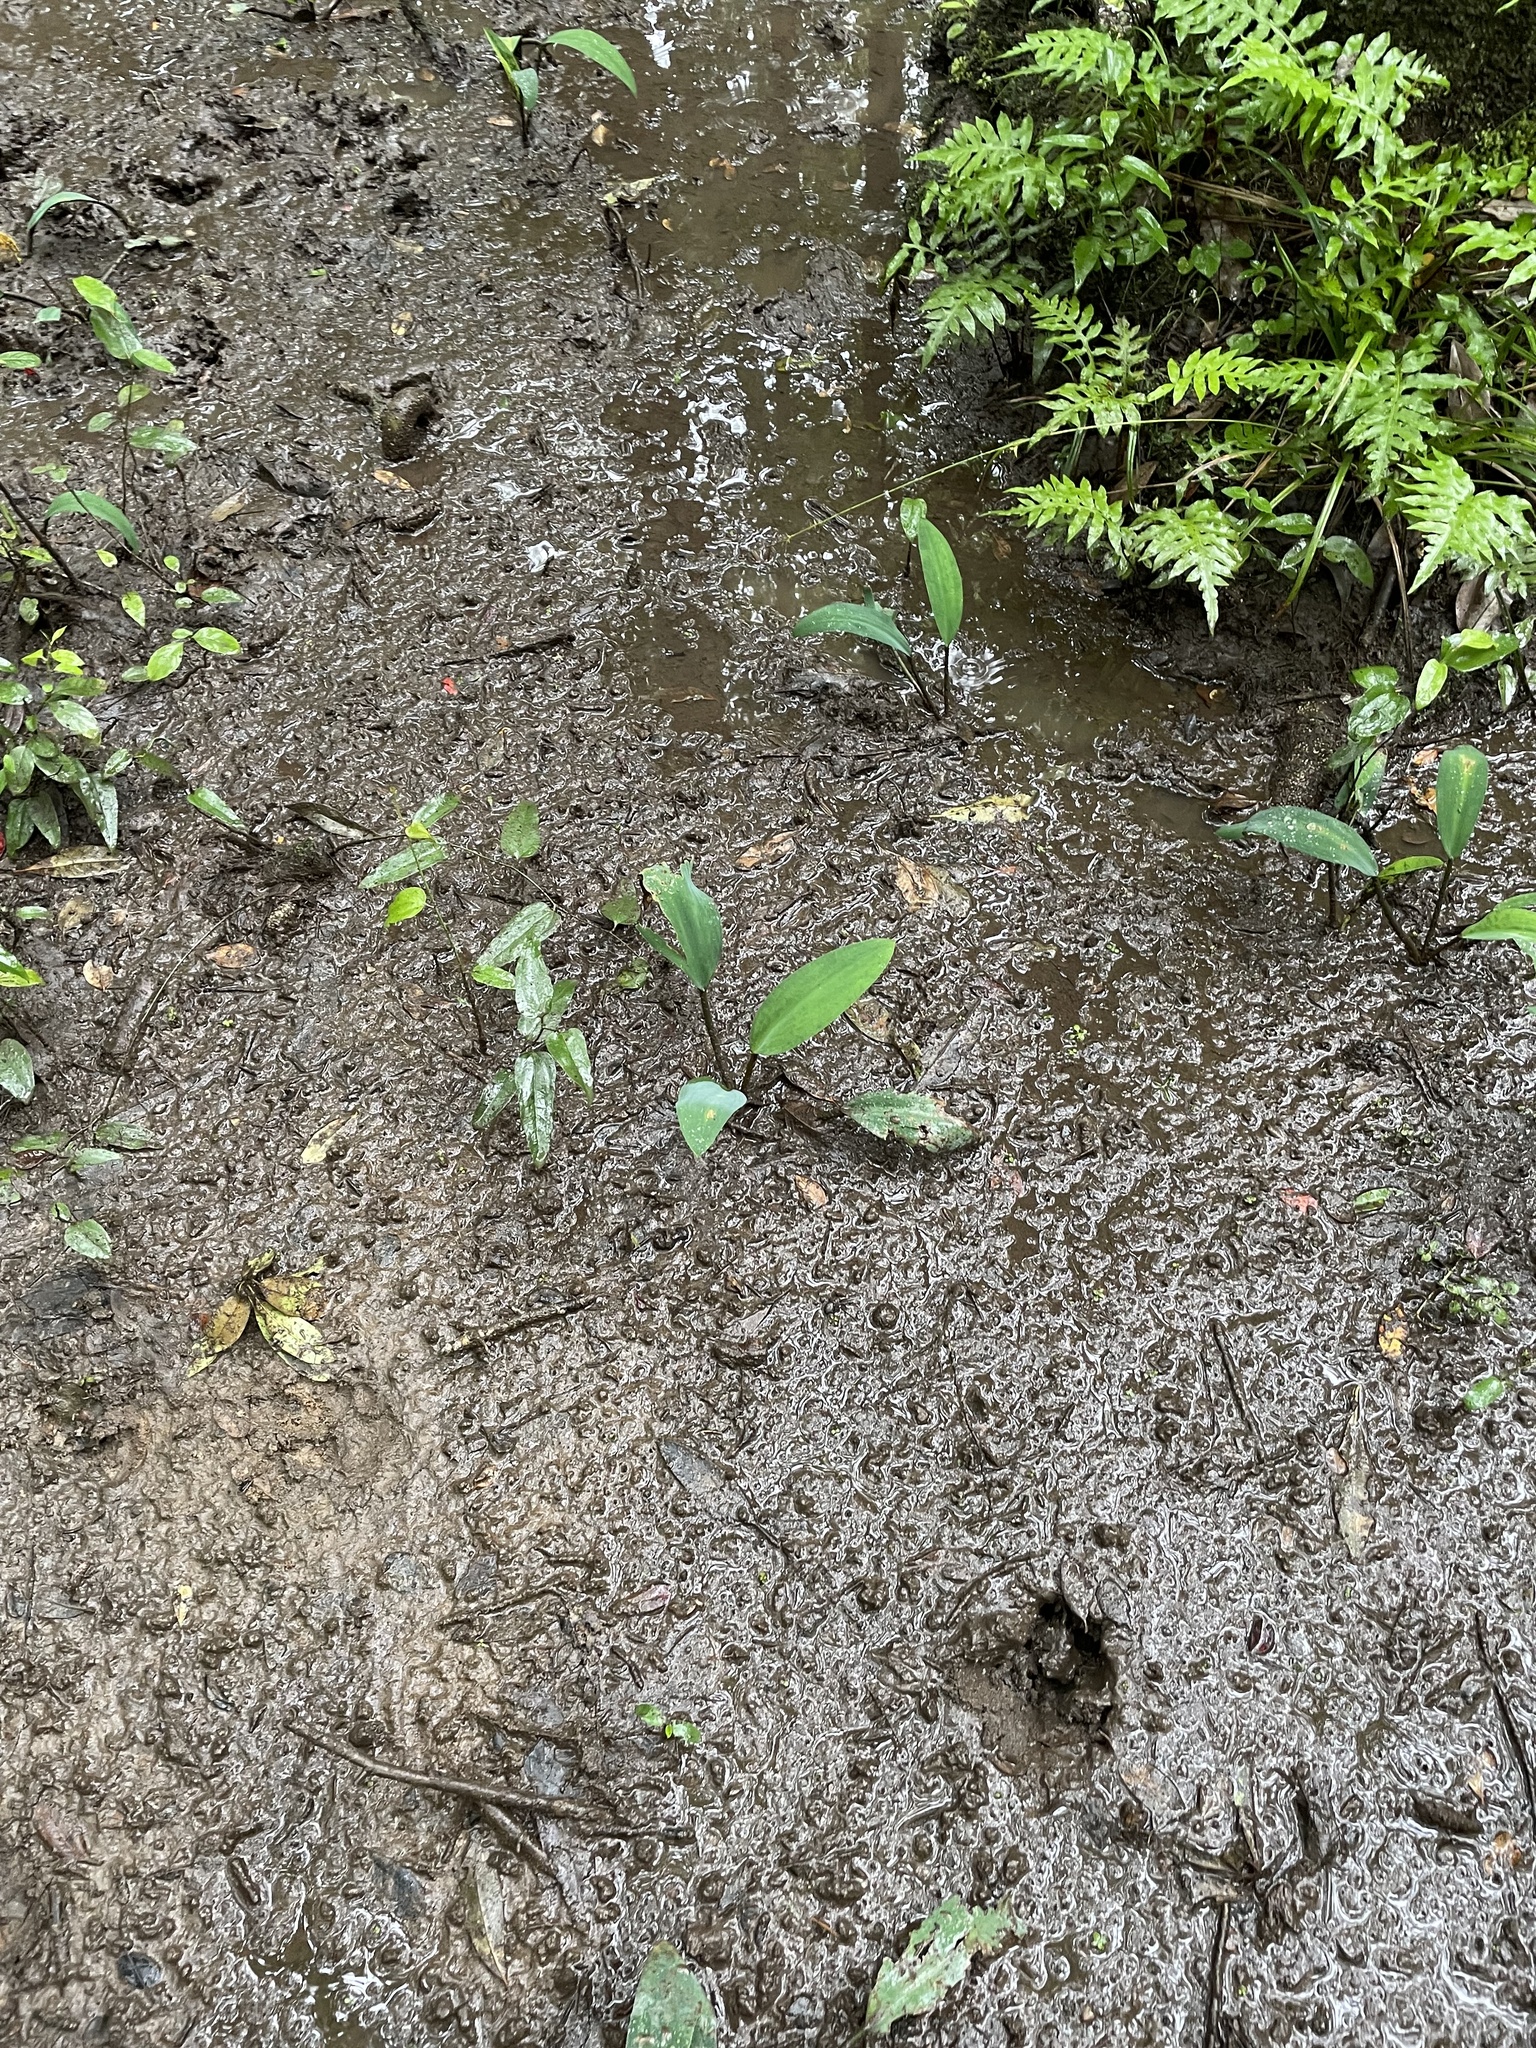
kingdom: Plantae
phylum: Tracheophyta
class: Liliopsida
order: Alismatales
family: Araceae
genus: Orontium
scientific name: Orontium aquaticum
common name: Golden-club
